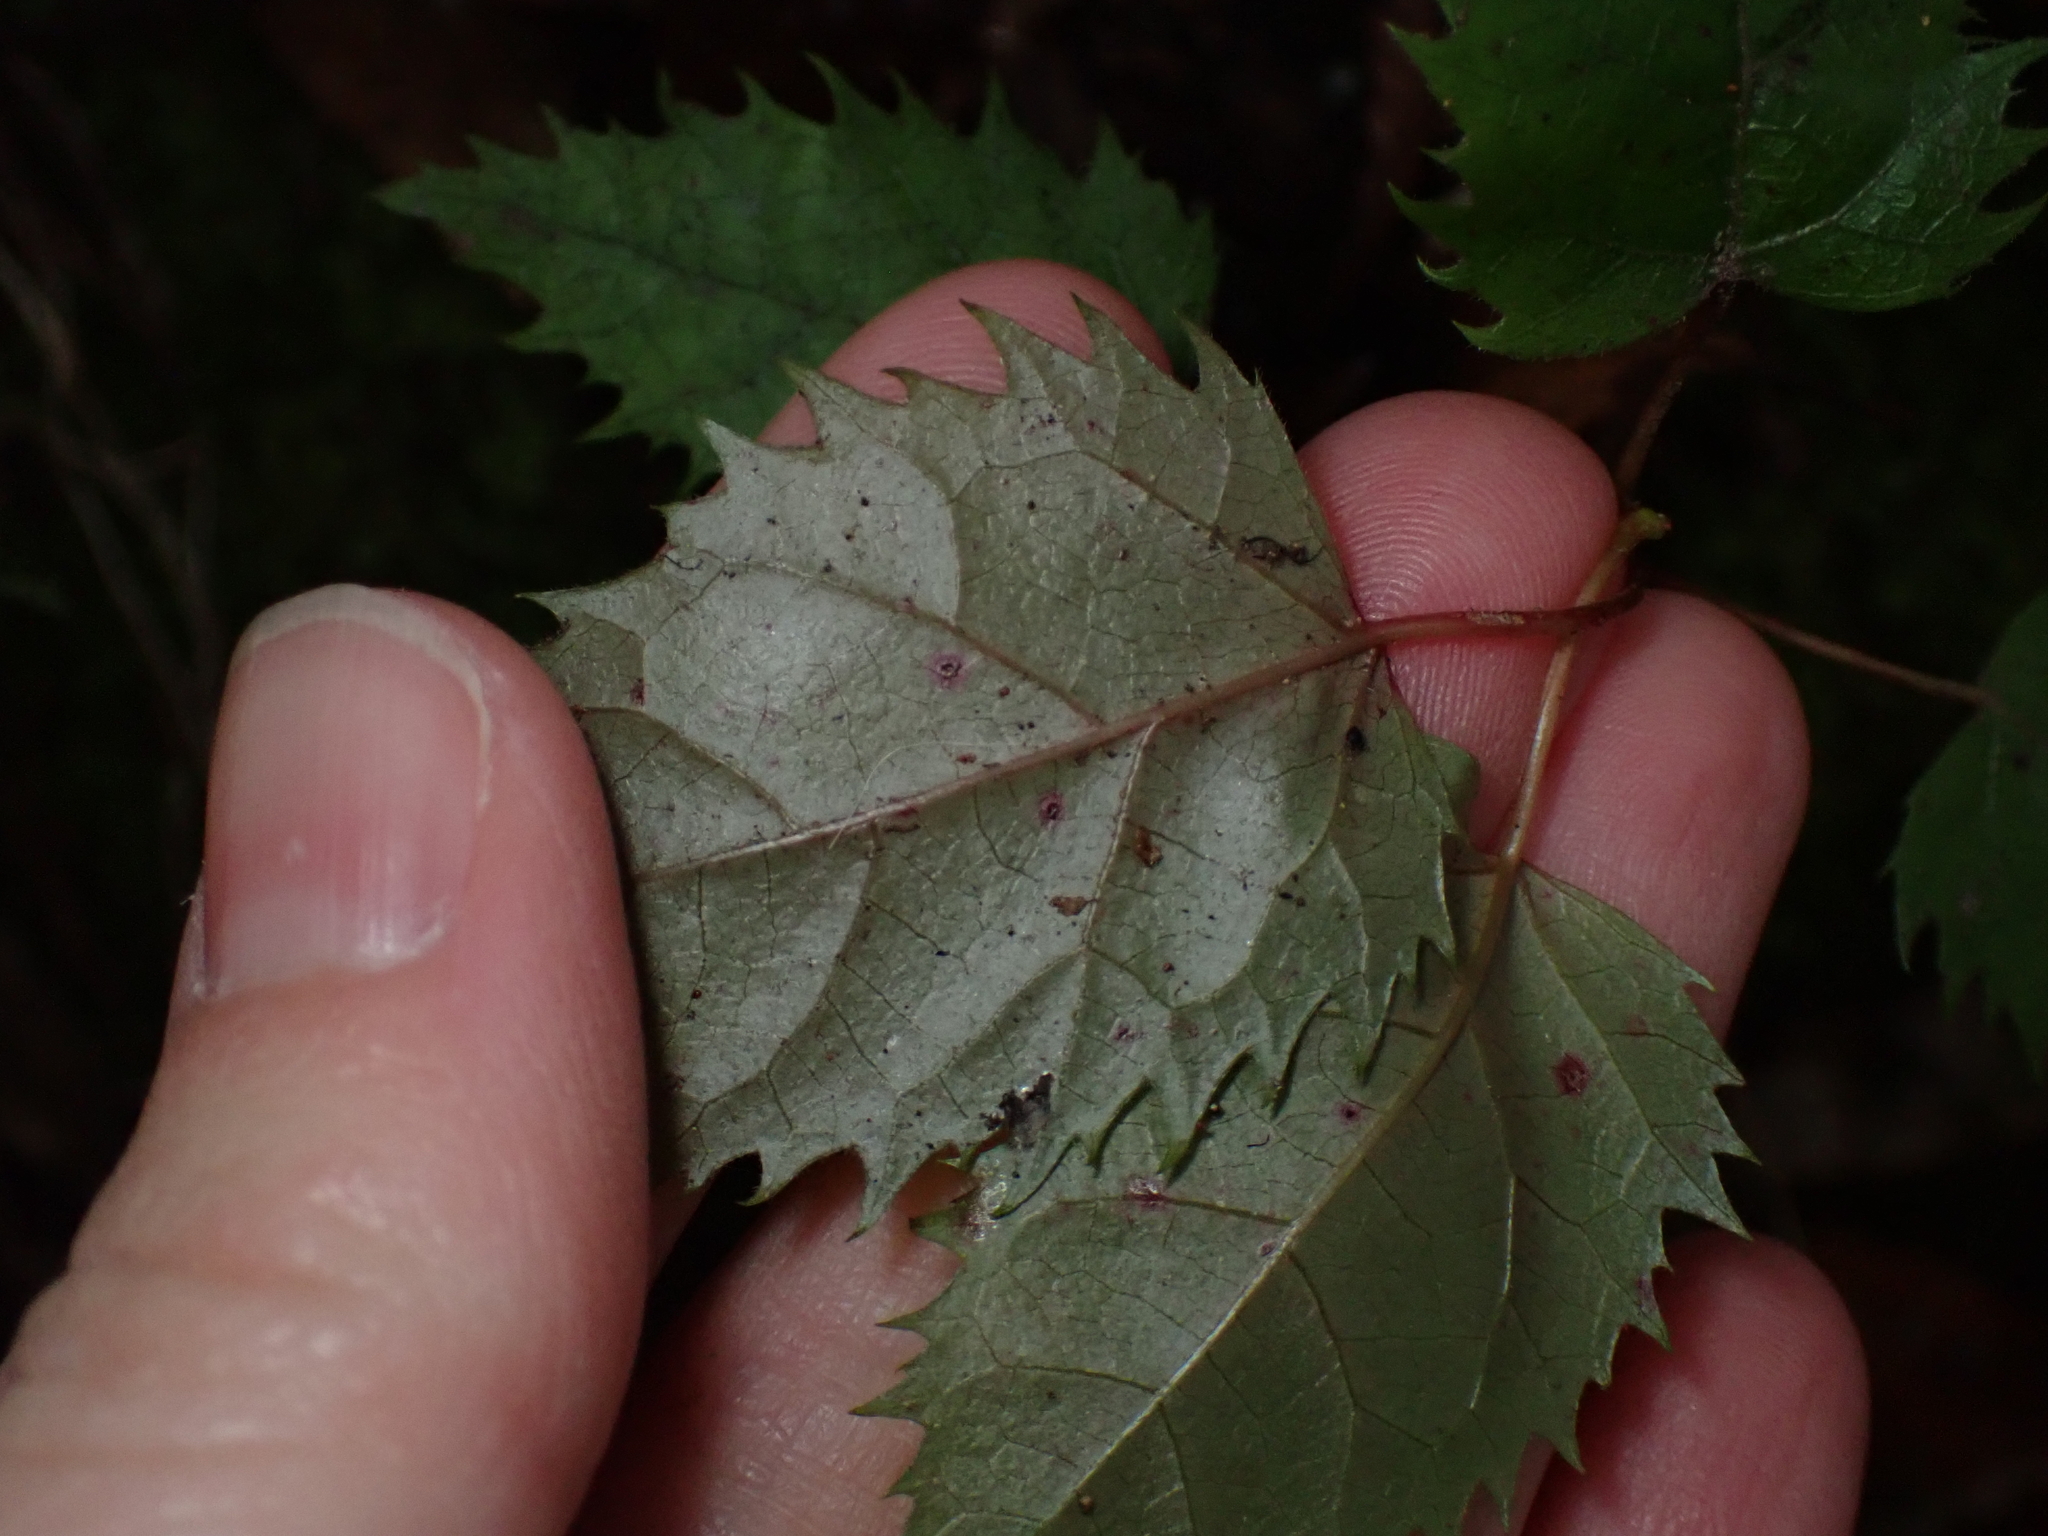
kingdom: Plantae
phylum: Tracheophyta
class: Magnoliopsida
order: Oxalidales
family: Elaeocarpaceae
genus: Aristotelia
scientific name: Aristotelia serrata
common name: New zealand wineberry
